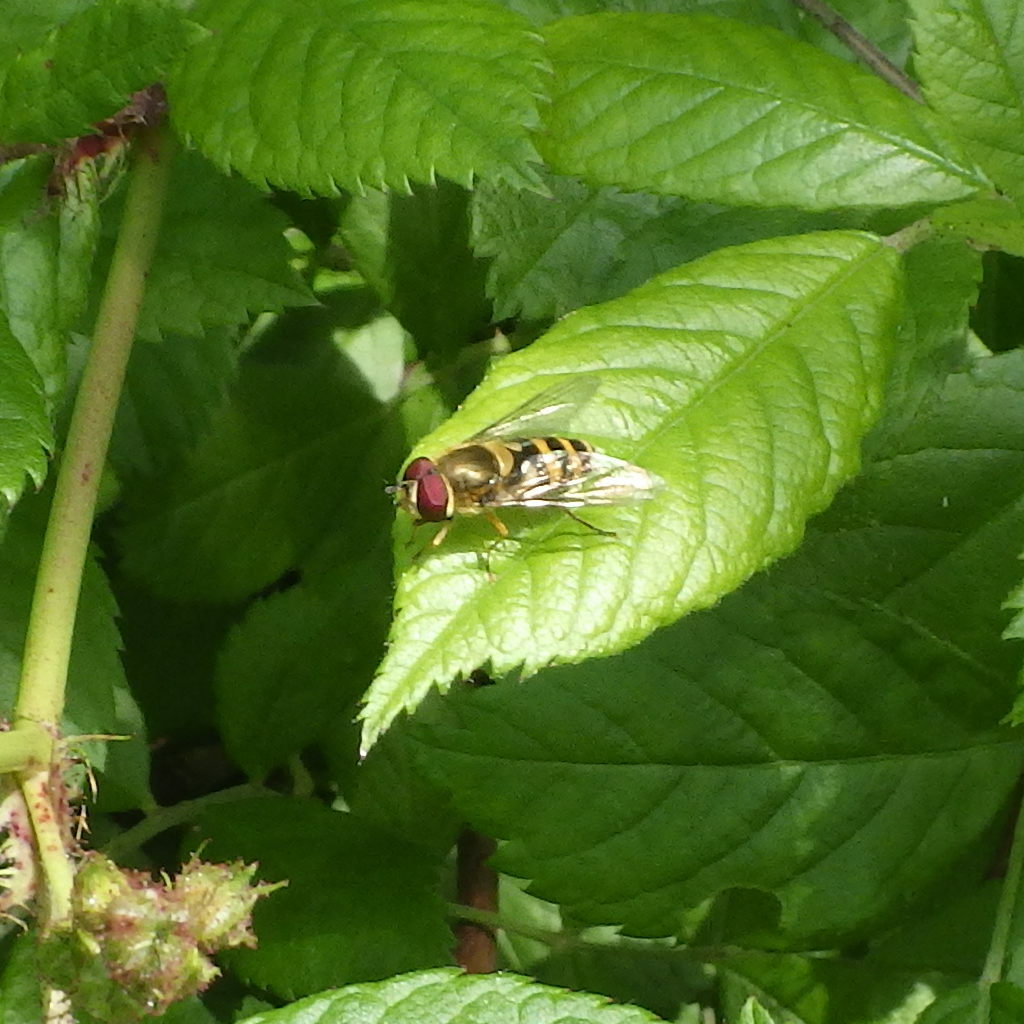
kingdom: Animalia
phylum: Arthropoda
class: Insecta
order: Diptera
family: Syrphidae
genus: Syrphus
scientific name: Syrphus
